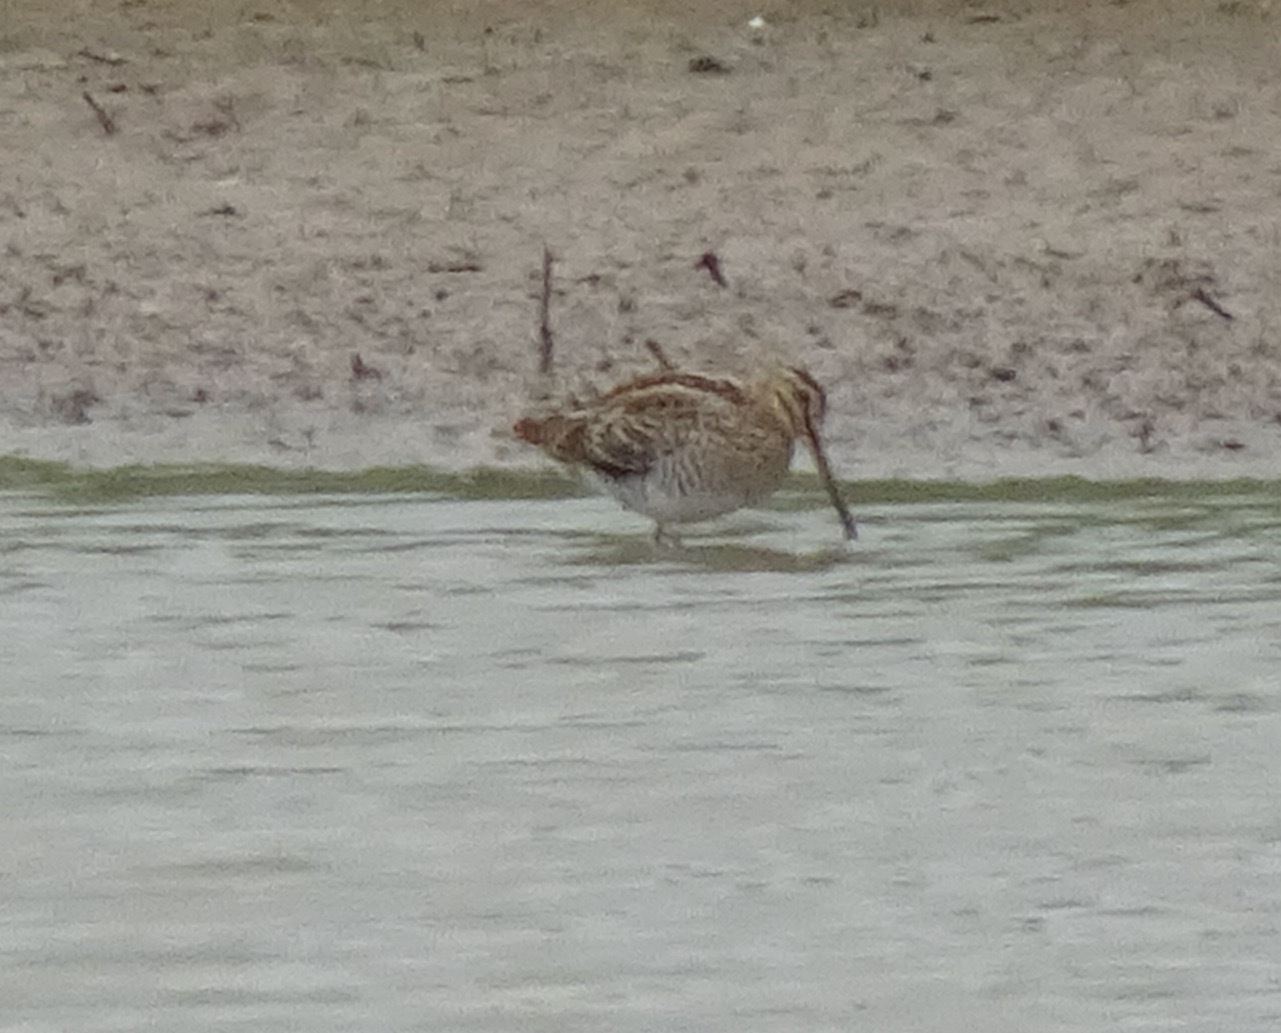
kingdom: Animalia
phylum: Chordata
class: Aves
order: Charadriiformes
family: Scolopacidae
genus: Gallinago
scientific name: Gallinago gallinago
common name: Common snipe
